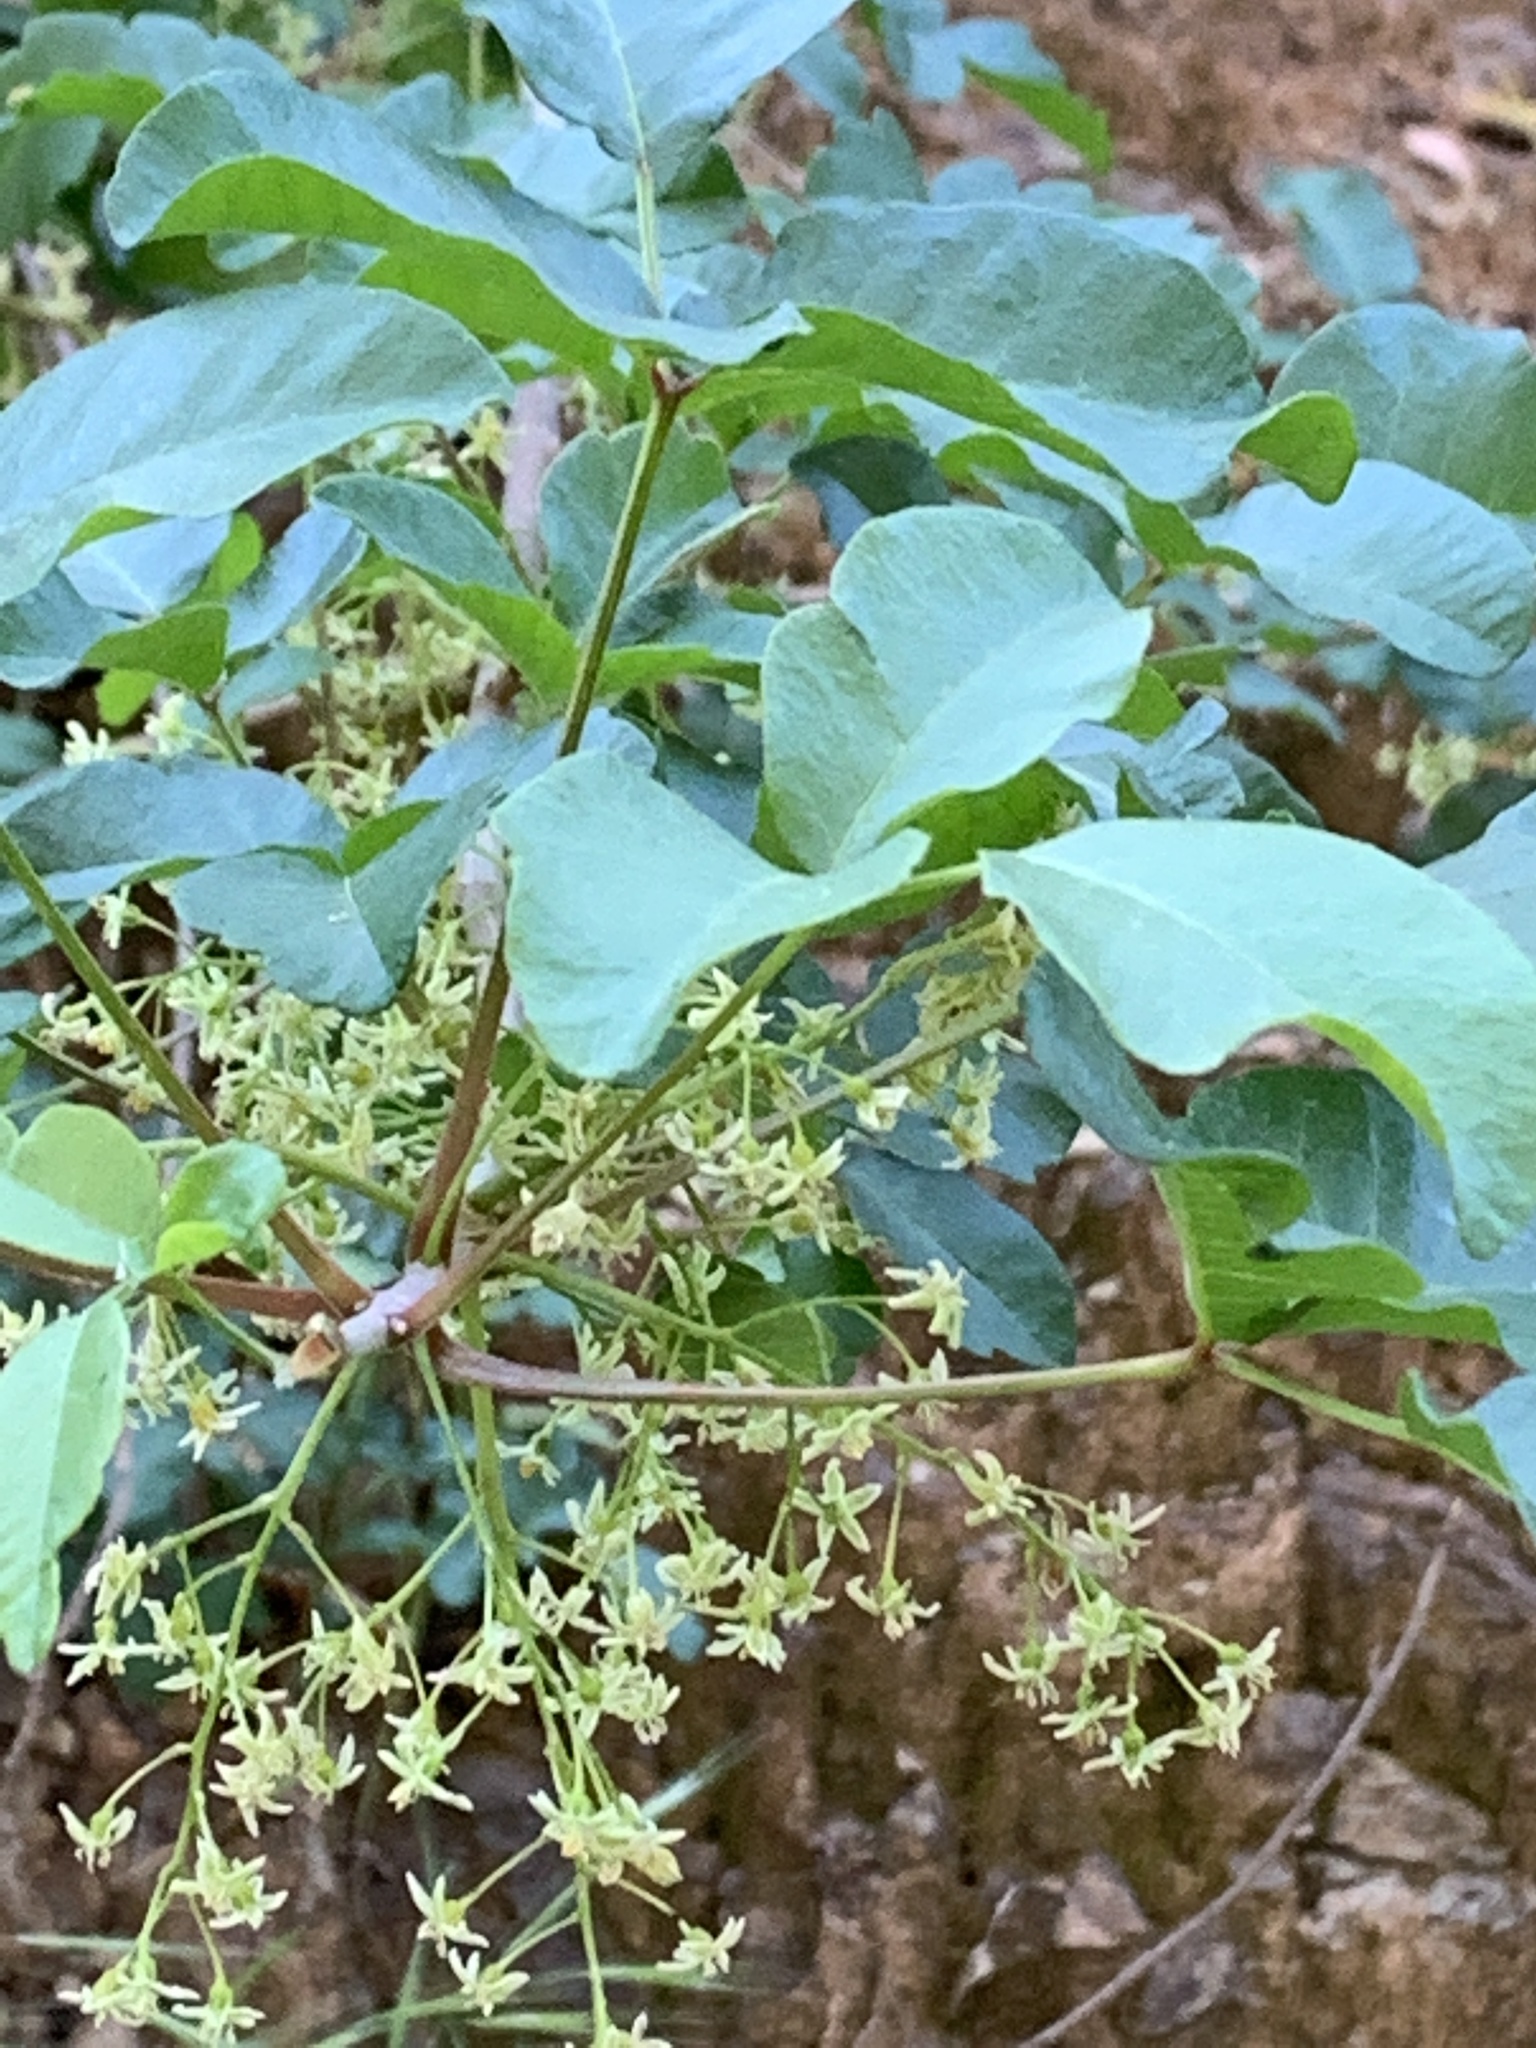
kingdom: Plantae
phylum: Tracheophyta
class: Magnoliopsida
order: Sapindales
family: Anacardiaceae
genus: Toxicodendron
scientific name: Toxicodendron diversilobum
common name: Pacific poison-oak
